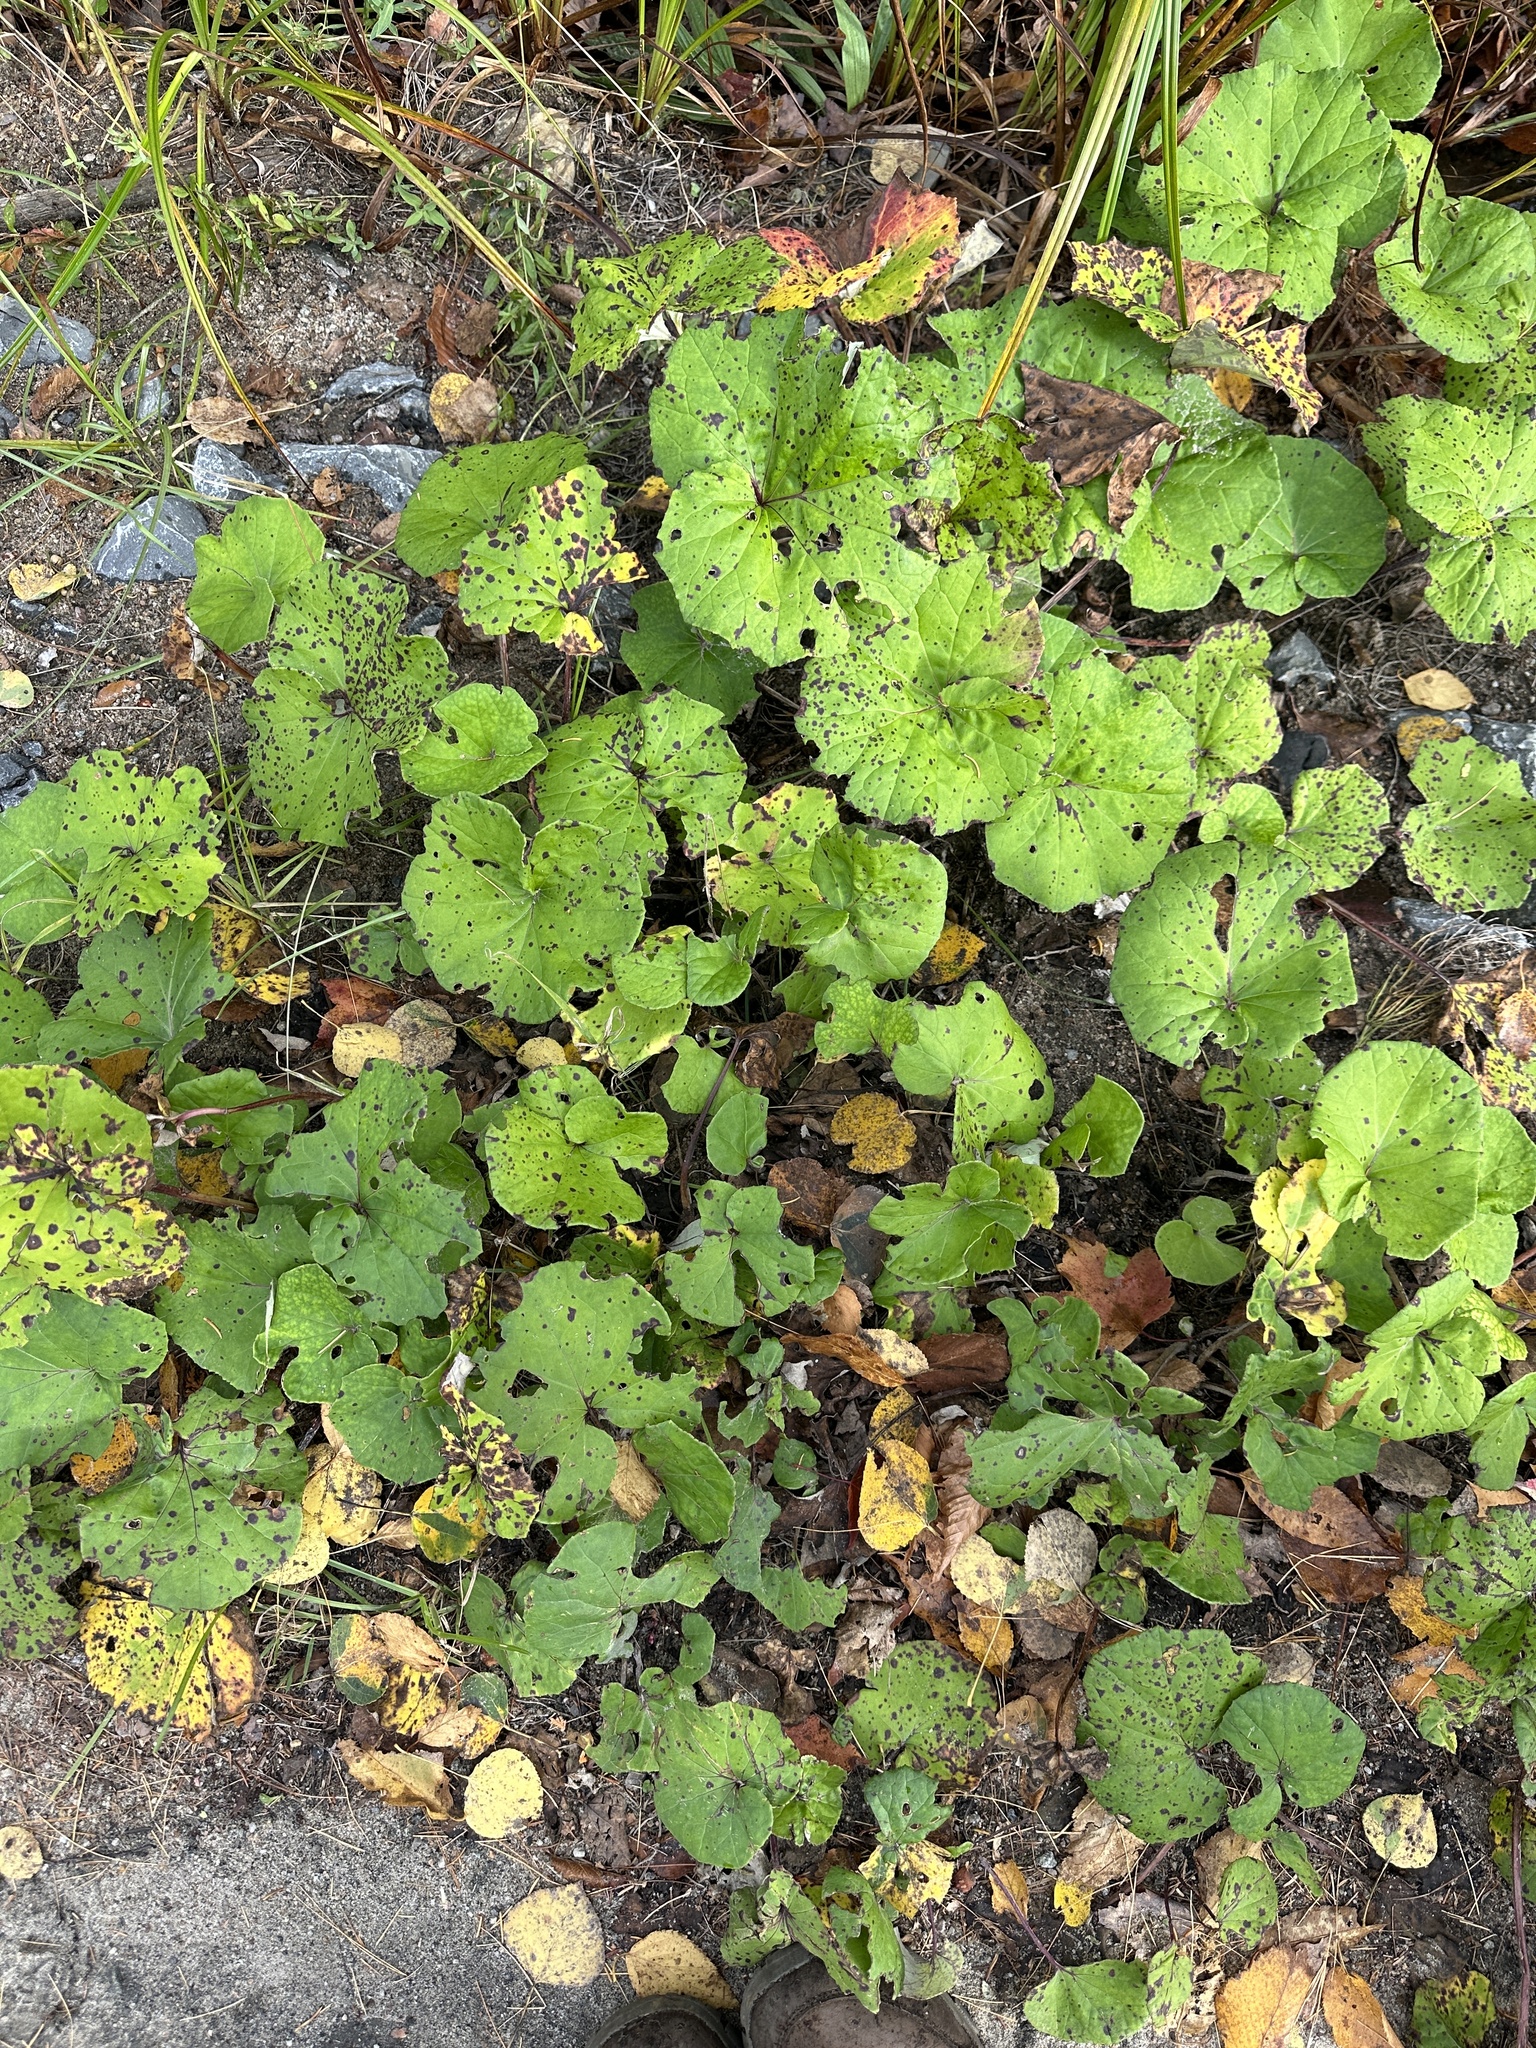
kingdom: Plantae
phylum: Tracheophyta
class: Magnoliopsida
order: Asterales
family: Asteraceae
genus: Tussilago
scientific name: Tussilago farfara
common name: Coltsfoot
